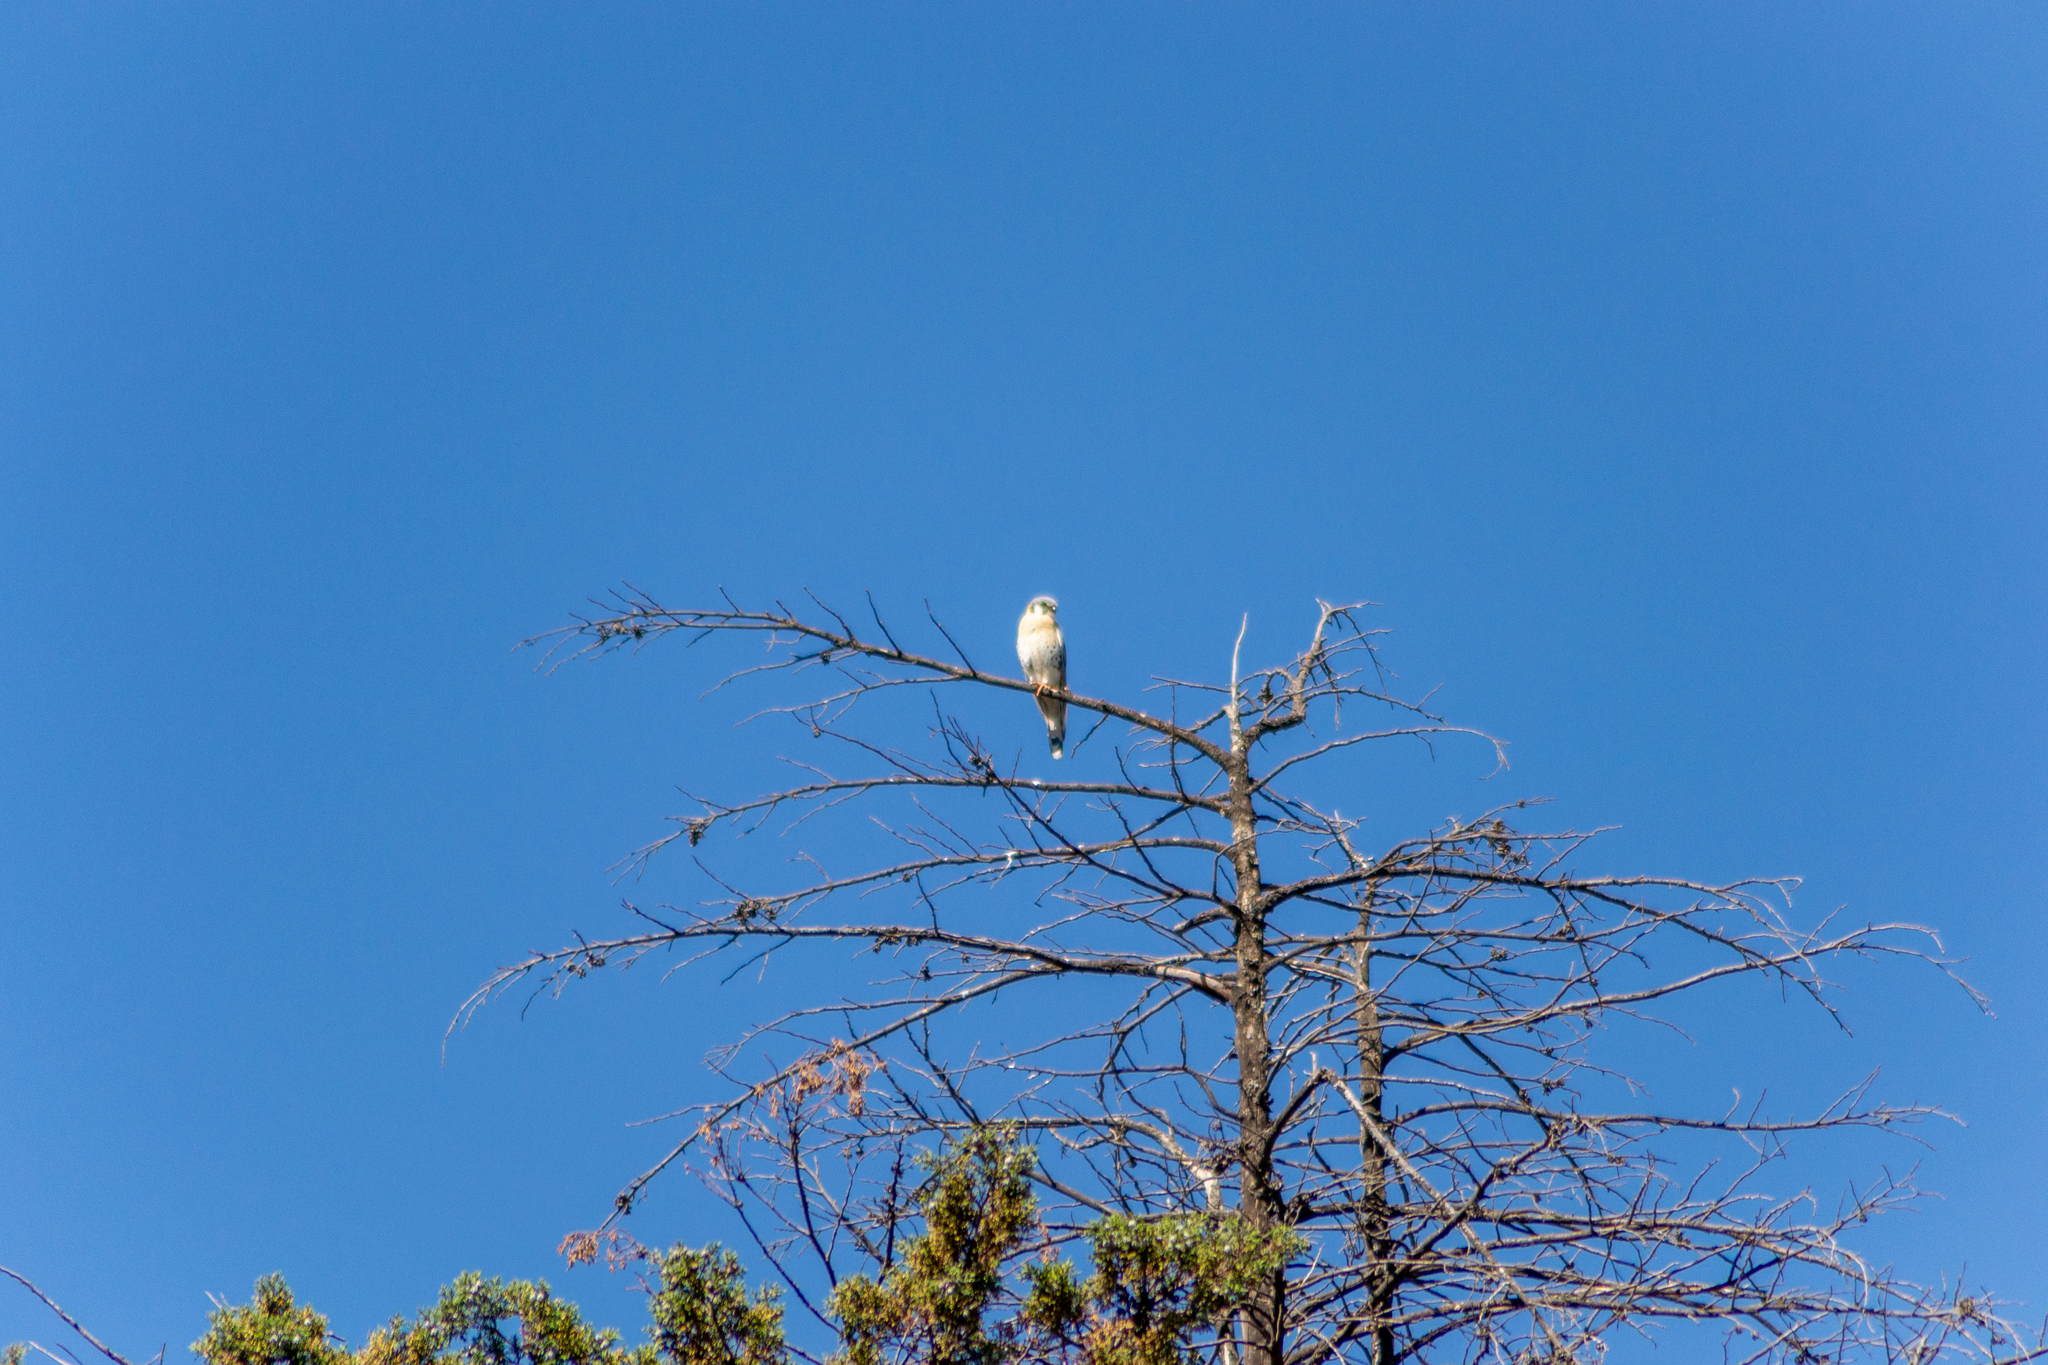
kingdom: Animalia
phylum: Chordata
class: Aves
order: Falconiformes
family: Falconidae
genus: Falco
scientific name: Falco sparverius
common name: American kestrel
